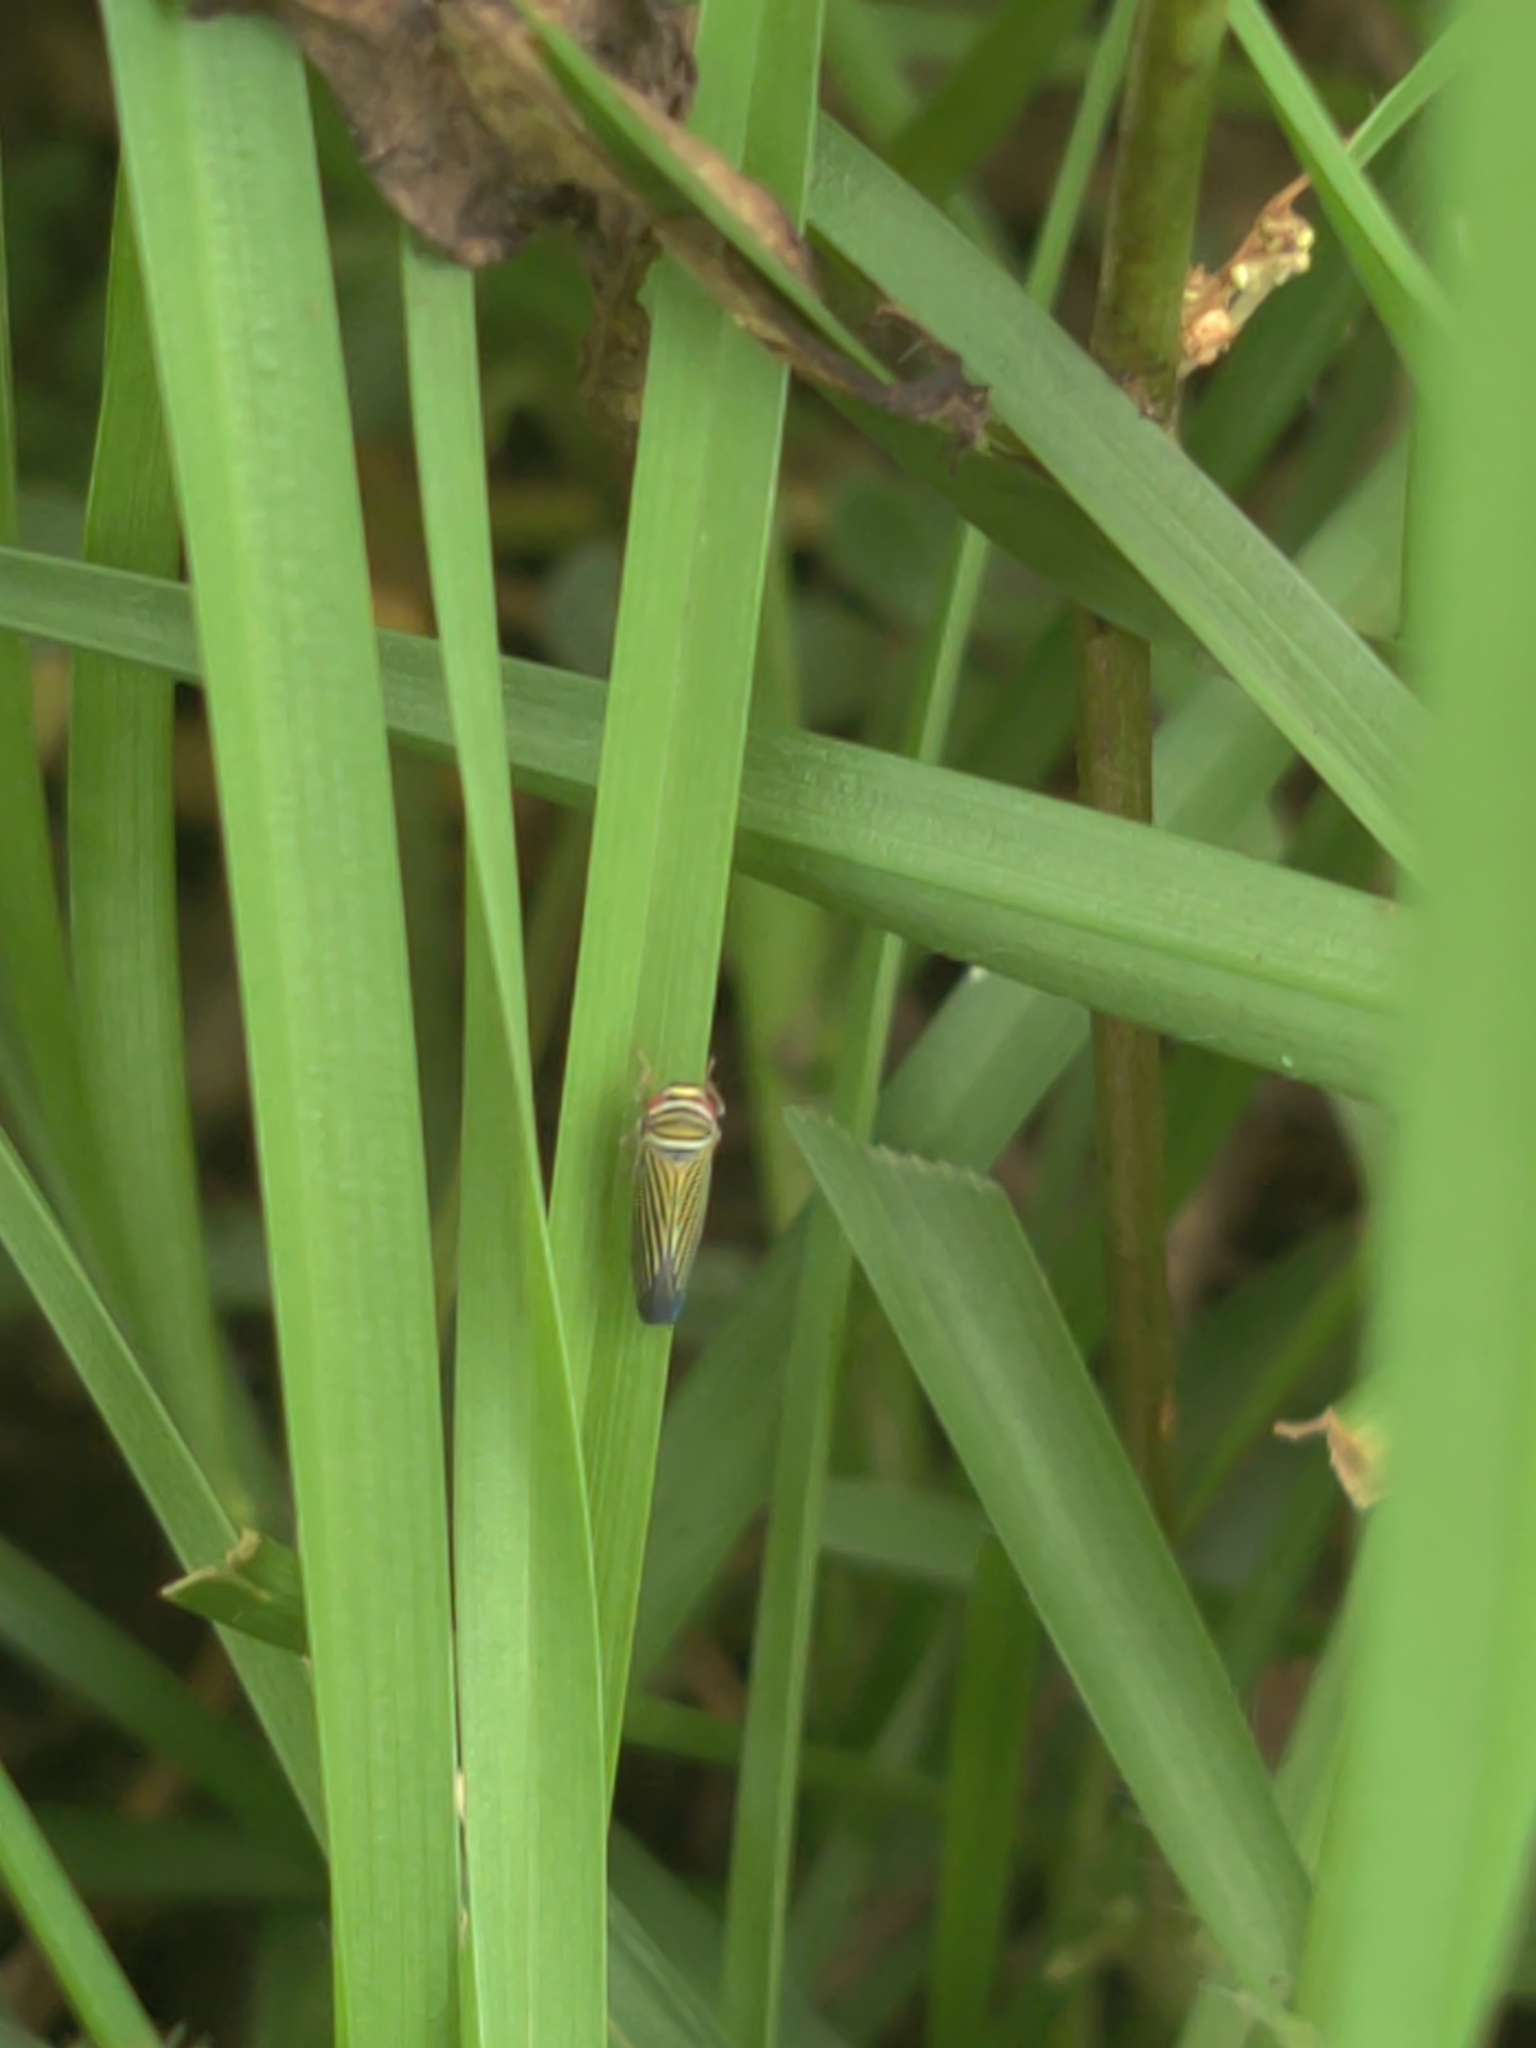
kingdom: Animalia
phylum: Arthropoda
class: Insecta
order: Hemiptera
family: Cicadellidae
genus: Tylozygus
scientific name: Tylozygus bifidus
